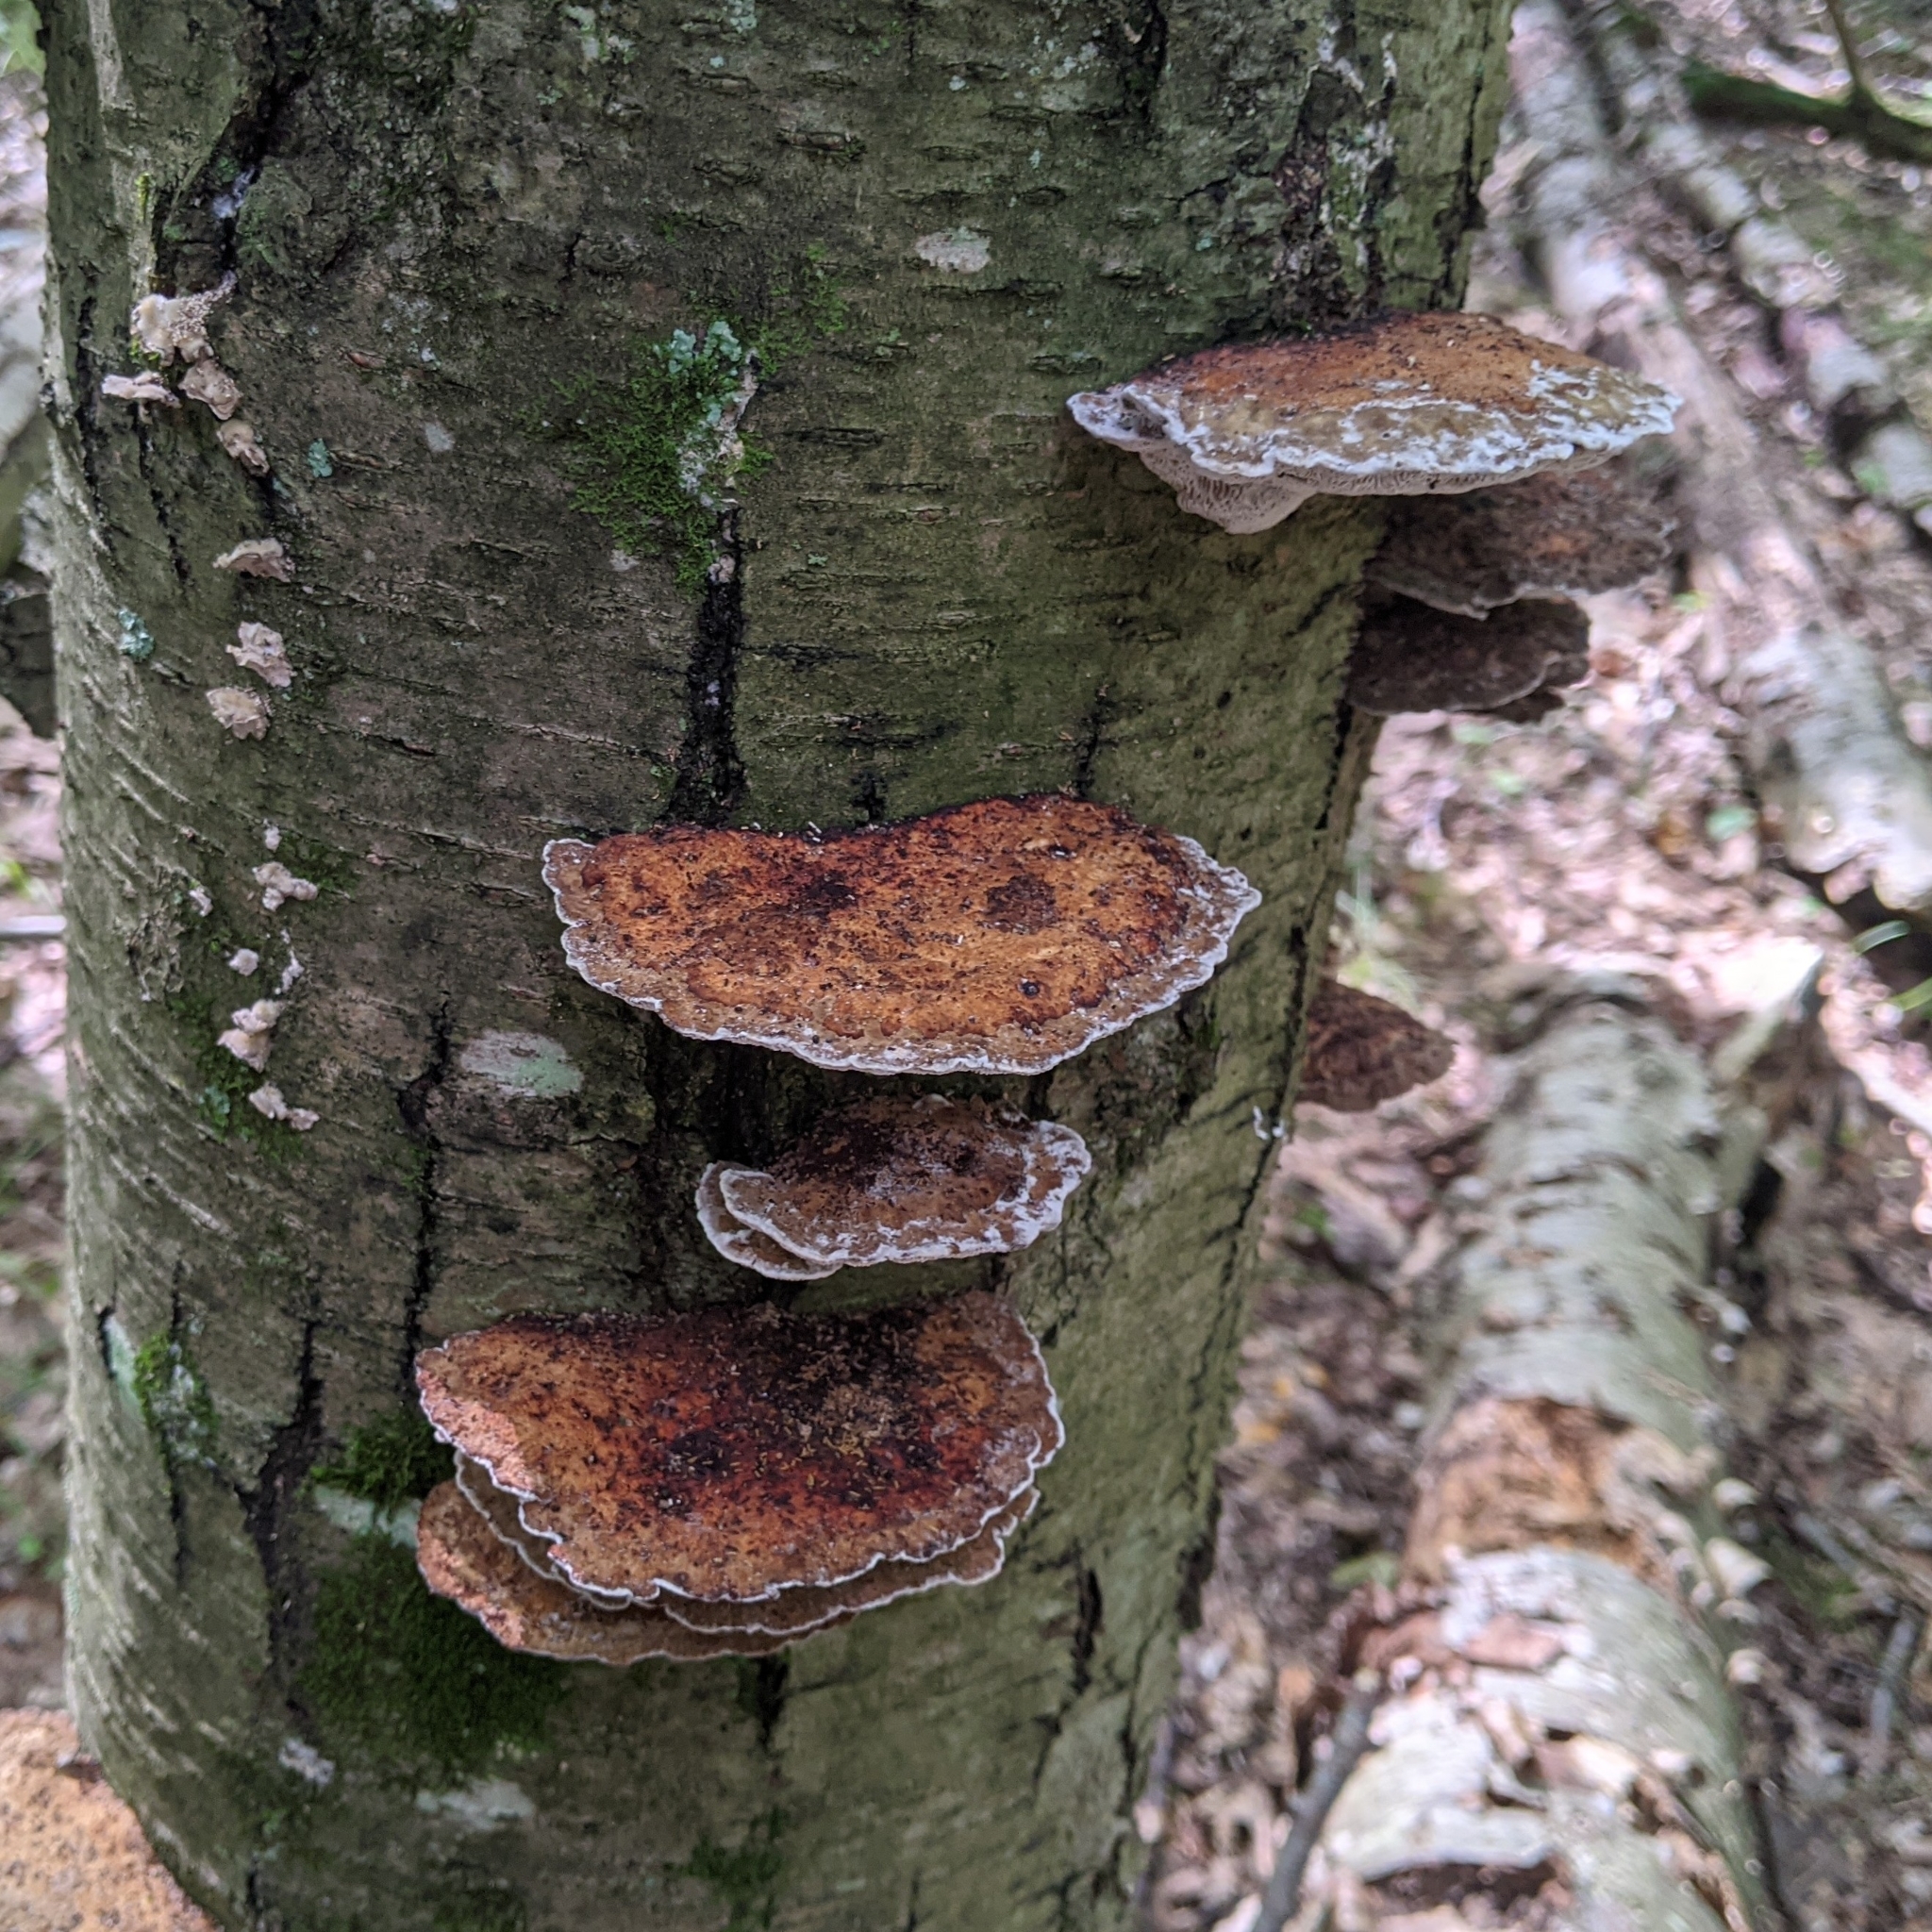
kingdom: Fungi
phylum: Basidiomycota
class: Agaricomycetes
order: Polyporales
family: Polyporaceae
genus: Daedaleopsis
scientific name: Daedaleopsis confragosa
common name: Blushing bracket
